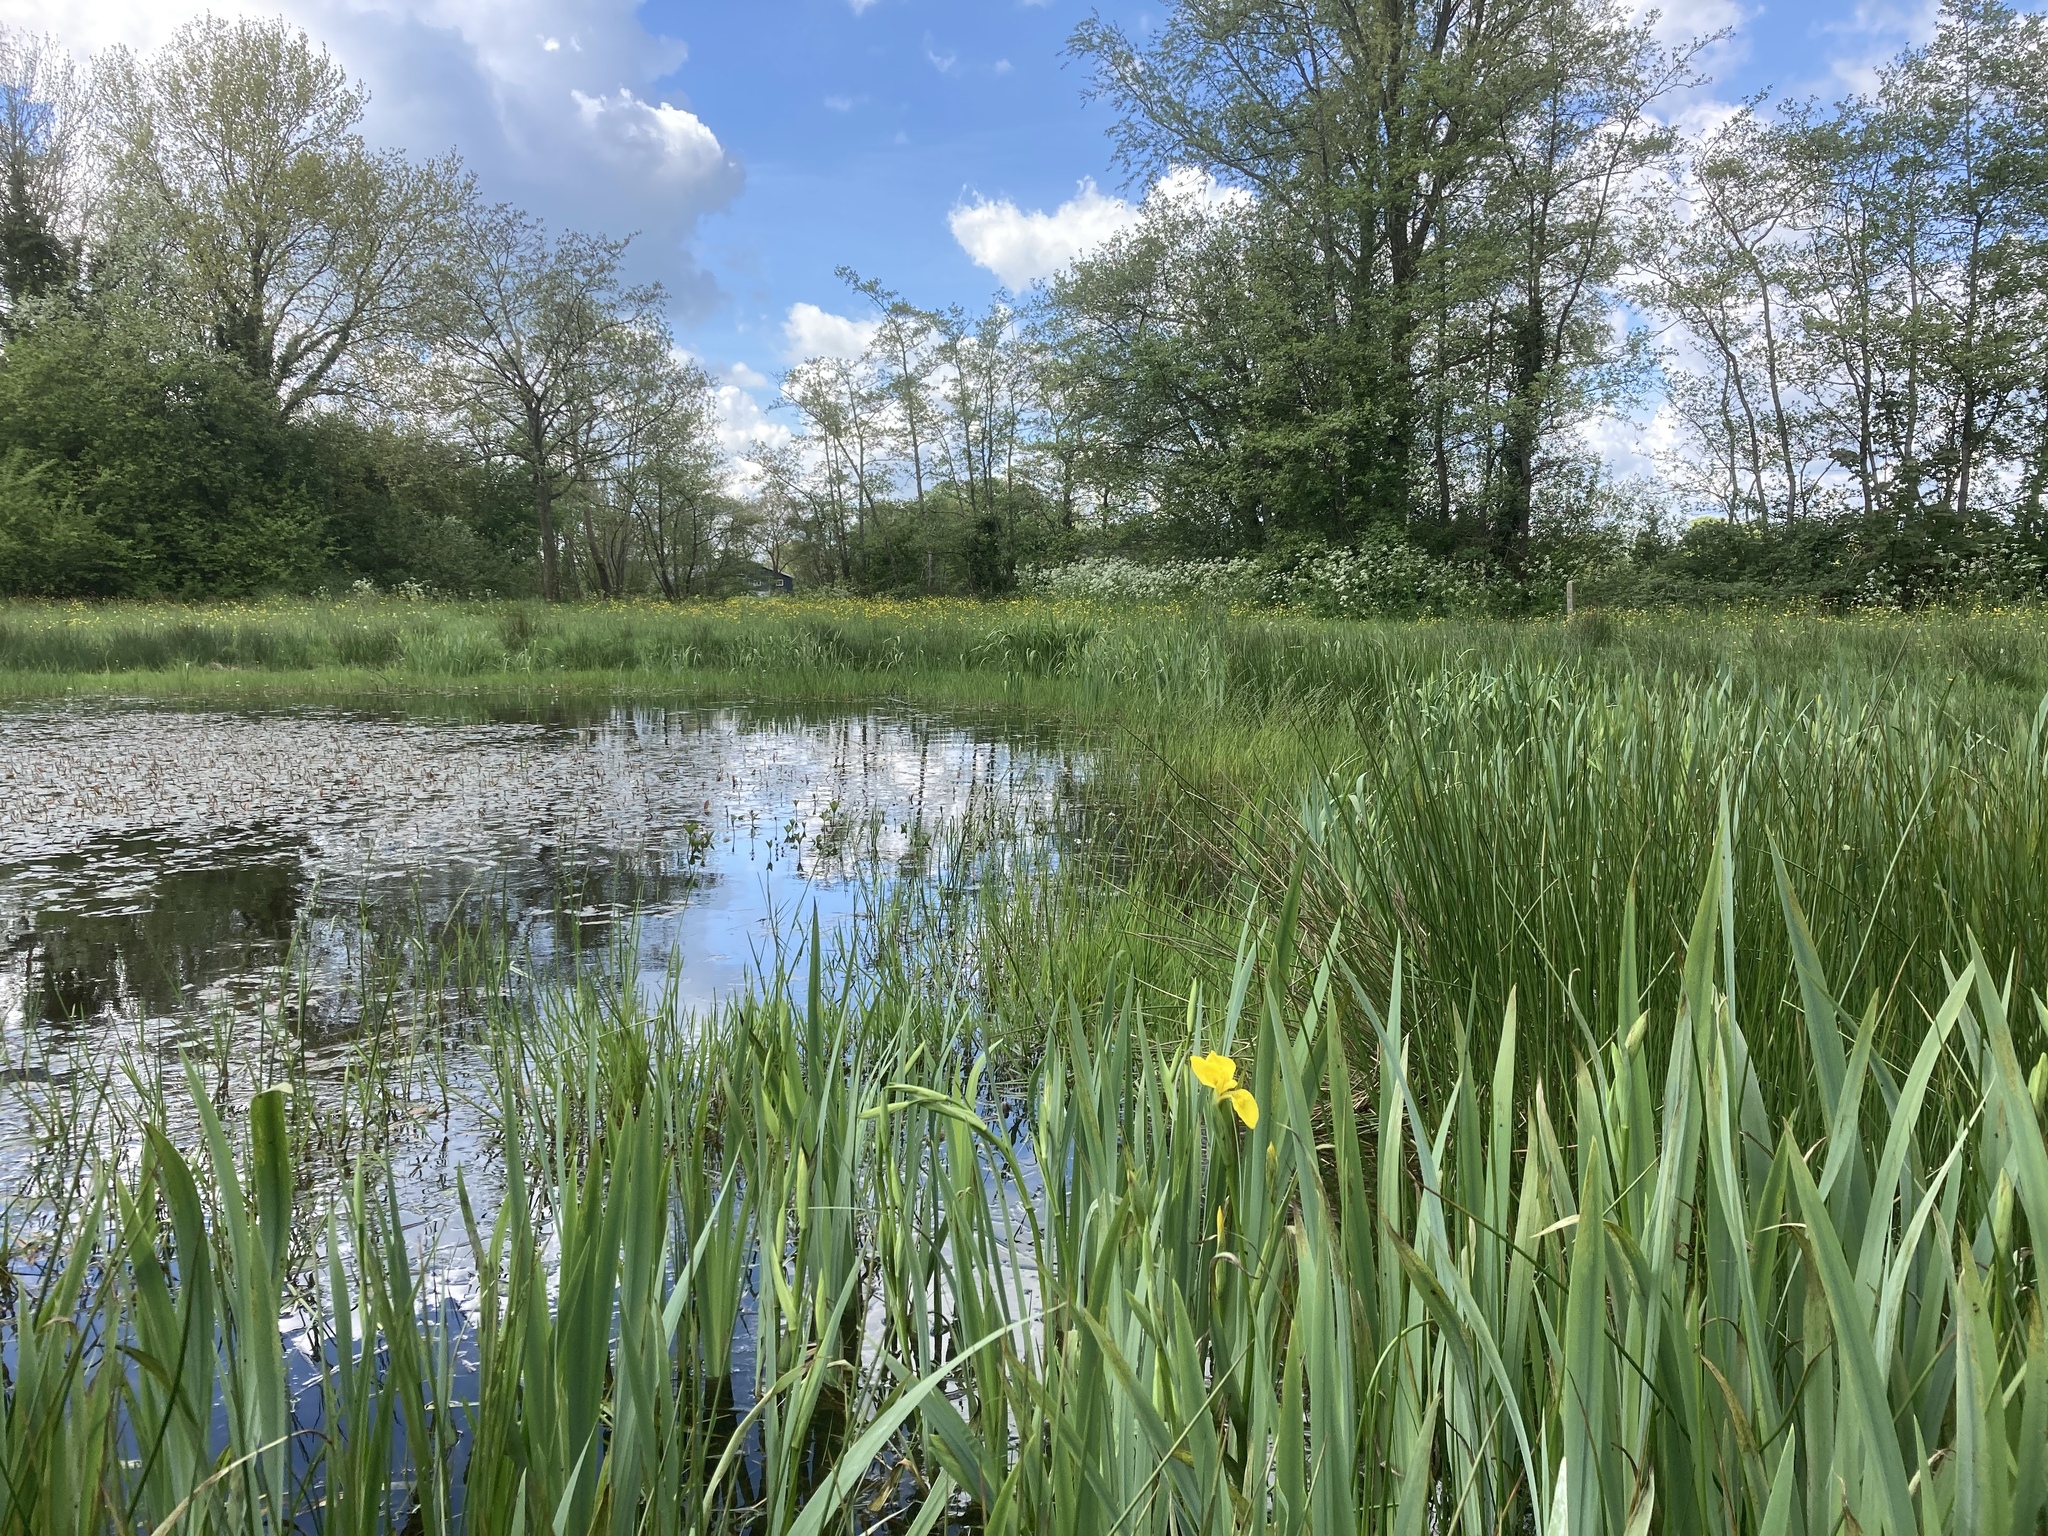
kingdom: Plantae
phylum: Tracheophyta
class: Liliopsida
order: Asparagales
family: Iridaceae
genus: Iris
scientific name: Iris pseudacorus
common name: Yellow flag
